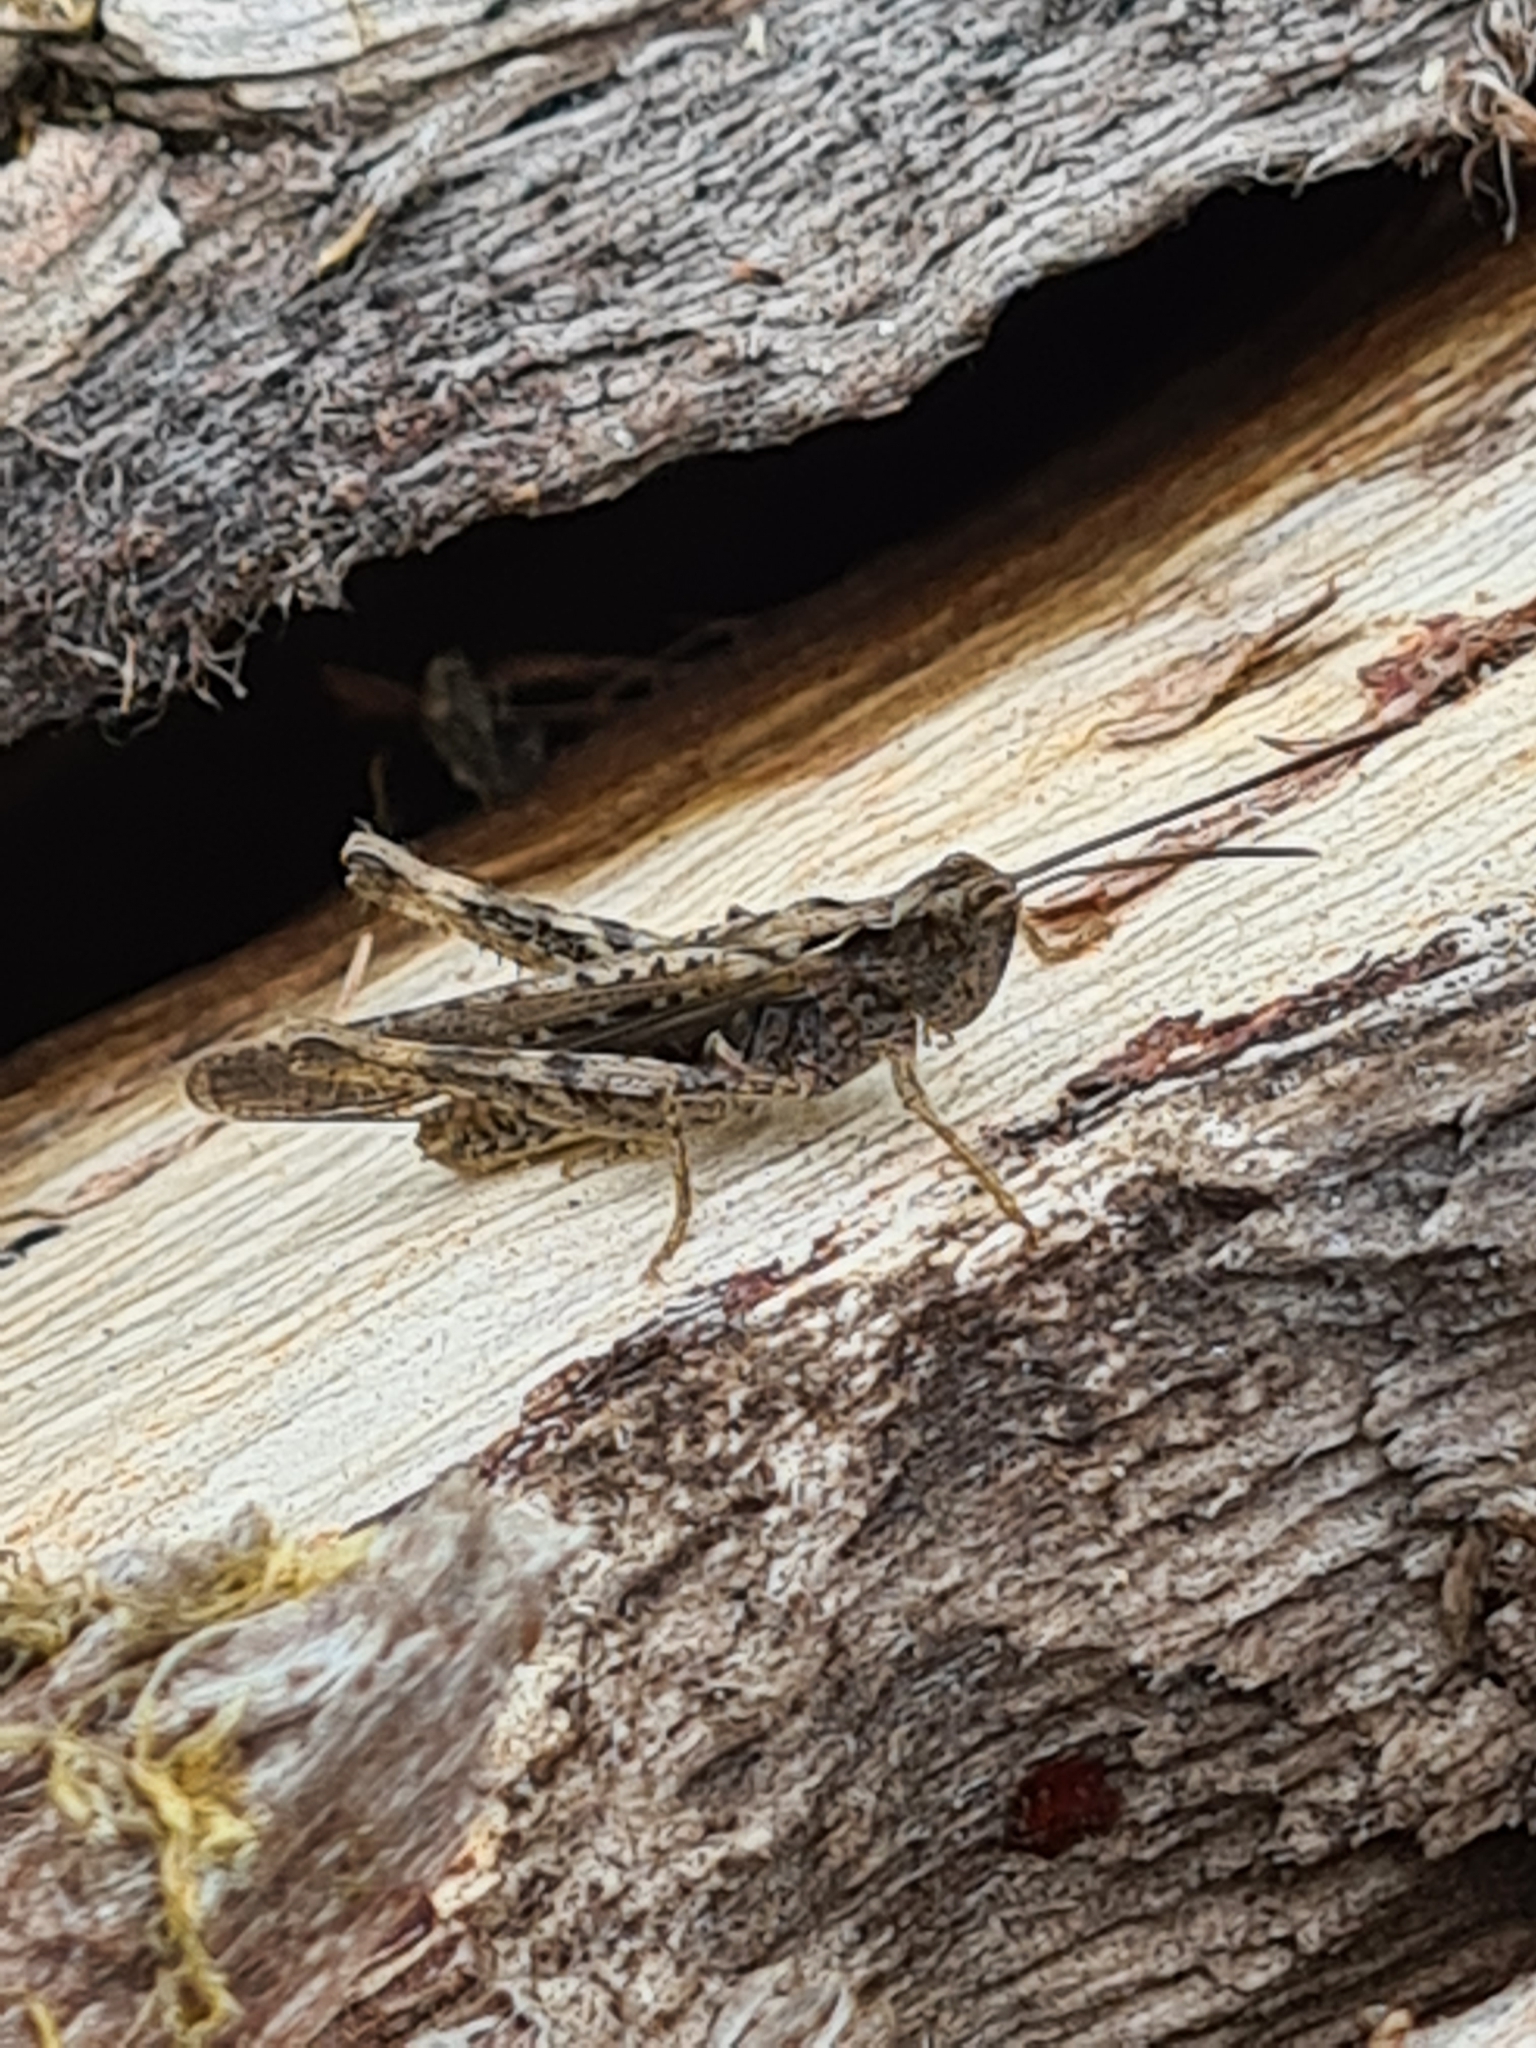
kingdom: Animalia
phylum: Arthropoda
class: Insecta
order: Orthoptera
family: Acrididae
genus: Chorthippus
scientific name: Chorthippus brunneus
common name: Field grasshopper
